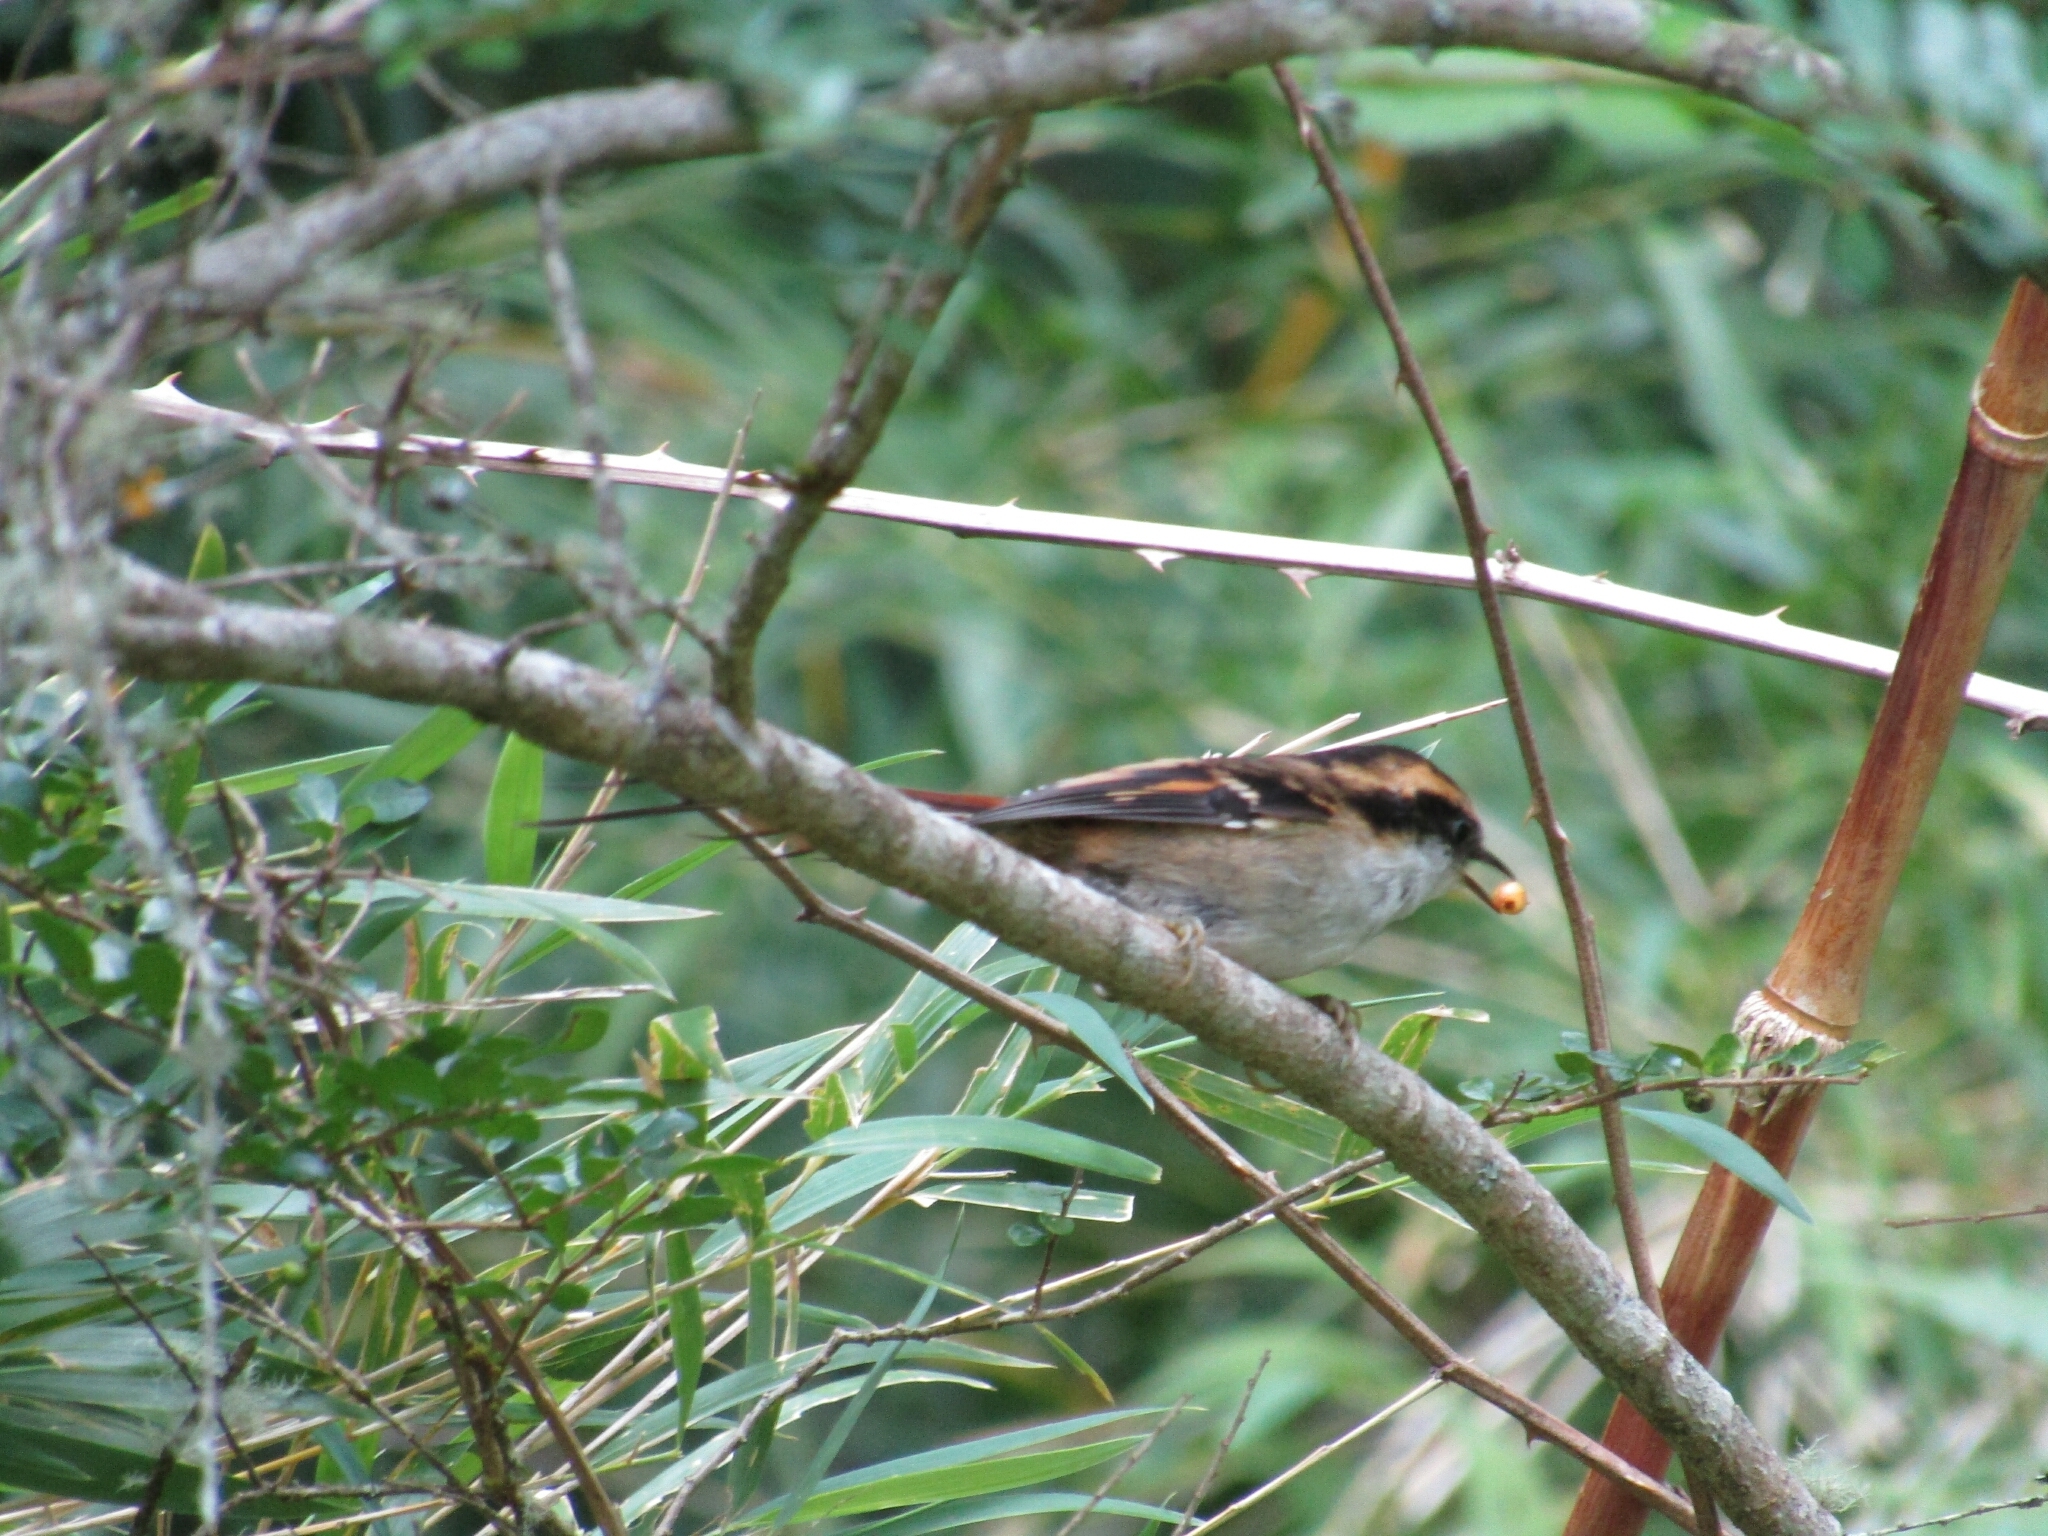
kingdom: Animalia
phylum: Chordata
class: Aves
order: Passeriformes
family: Furnariidae
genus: Aphrastura
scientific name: Aphrastura spinicauda
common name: Thorn-tailed rayadito
